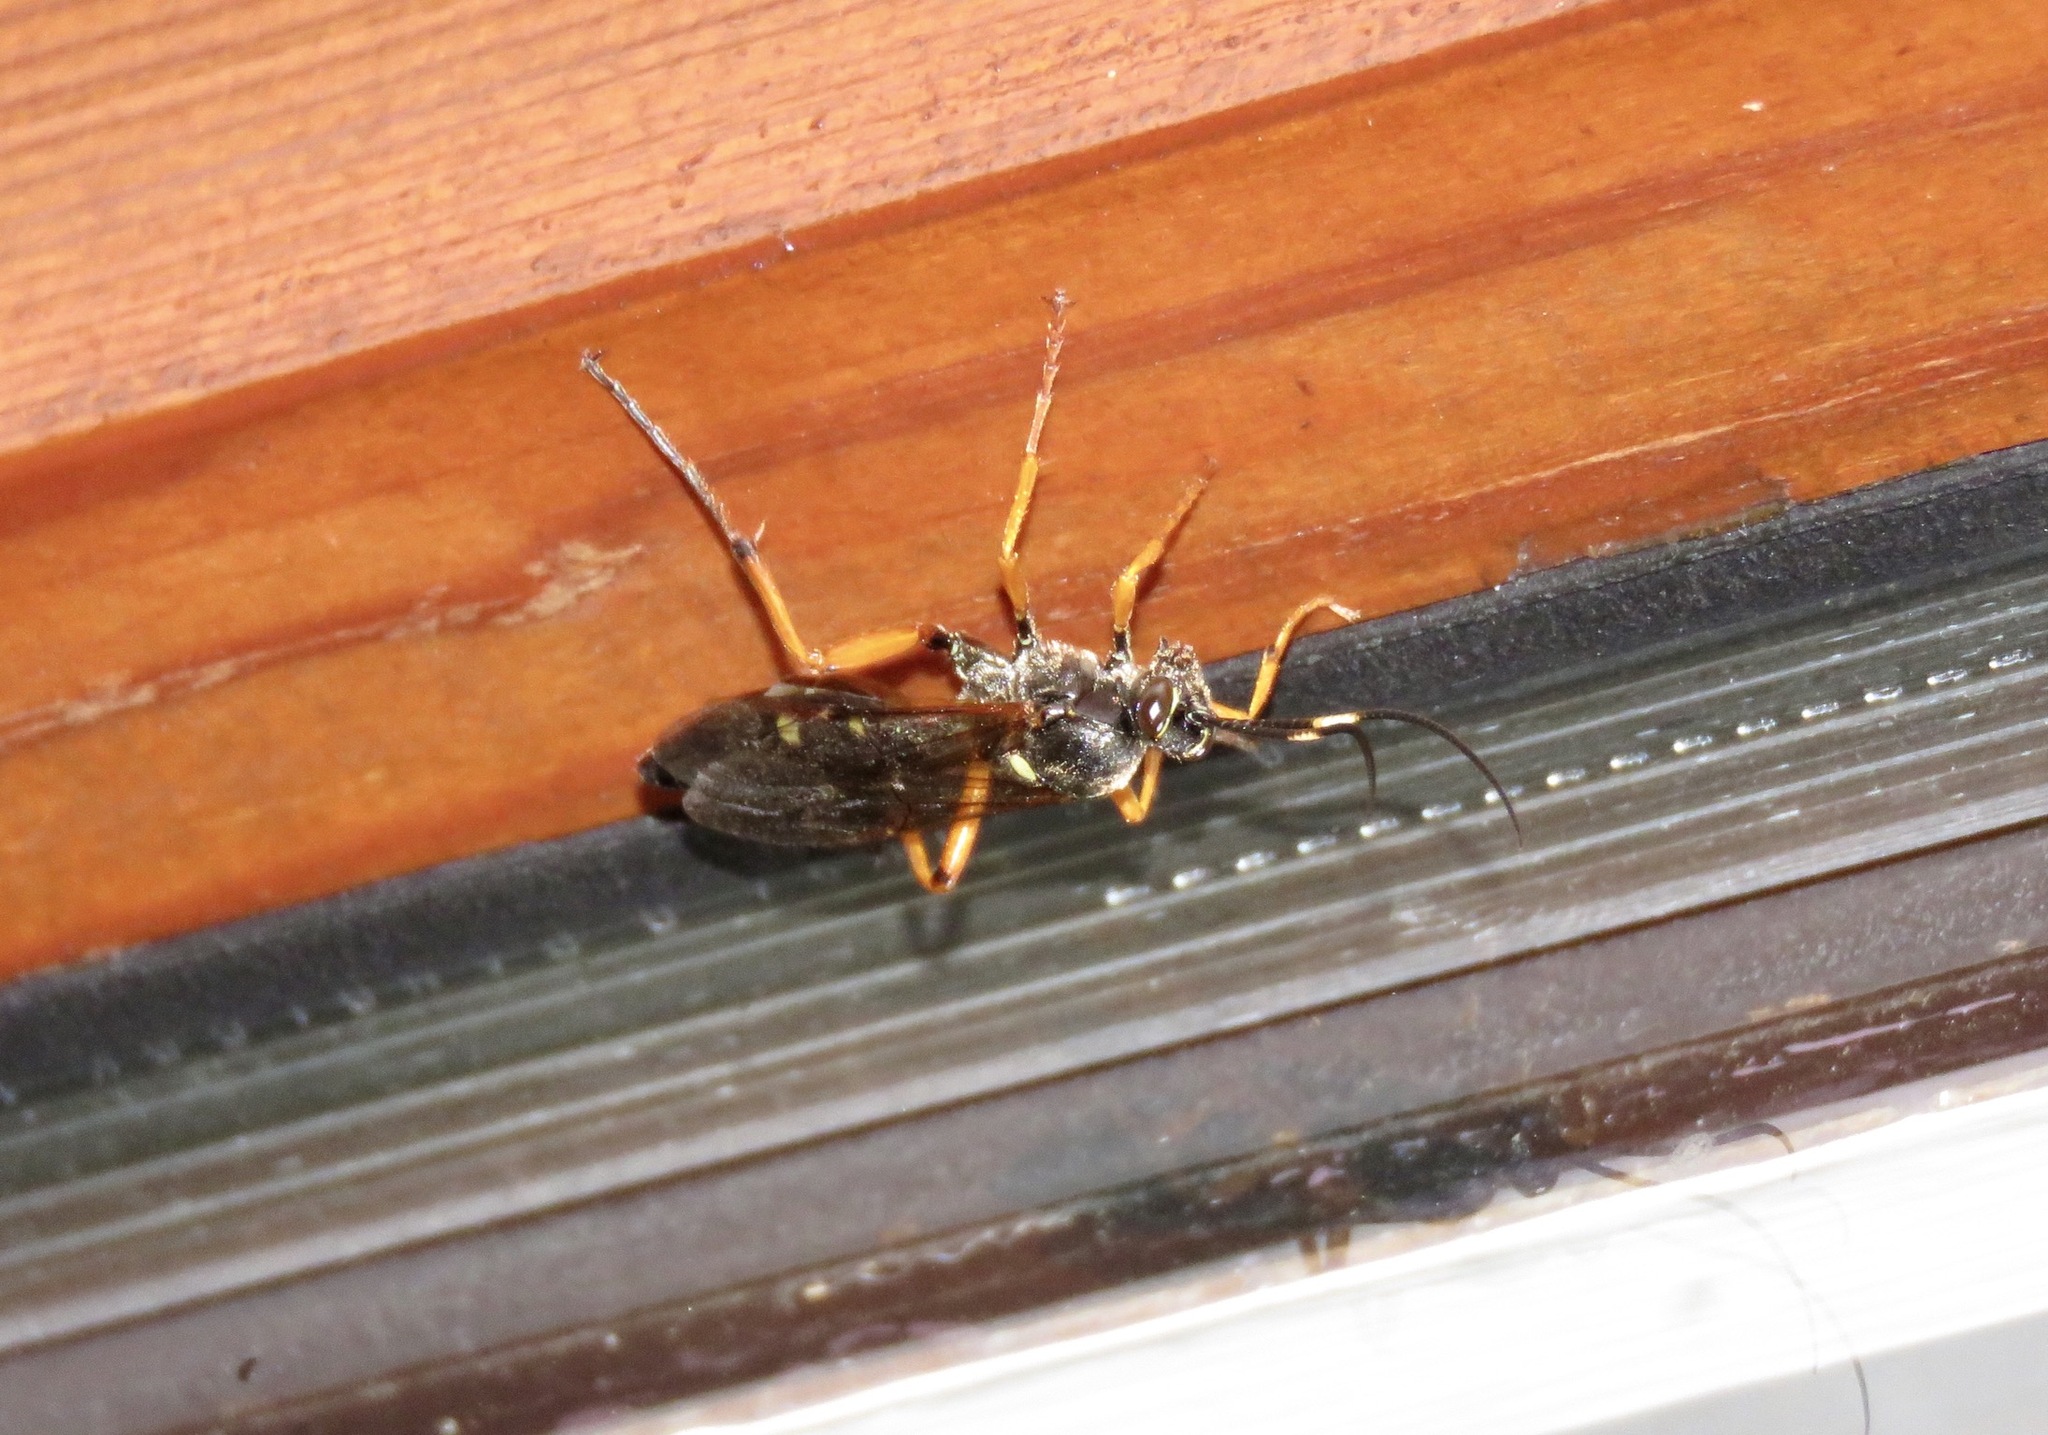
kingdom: Animalia
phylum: Arthropoda
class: Insecta
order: Hymenoptera
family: Ichneumonidae
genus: Diphyus
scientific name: Diphyus quadripunctorius
